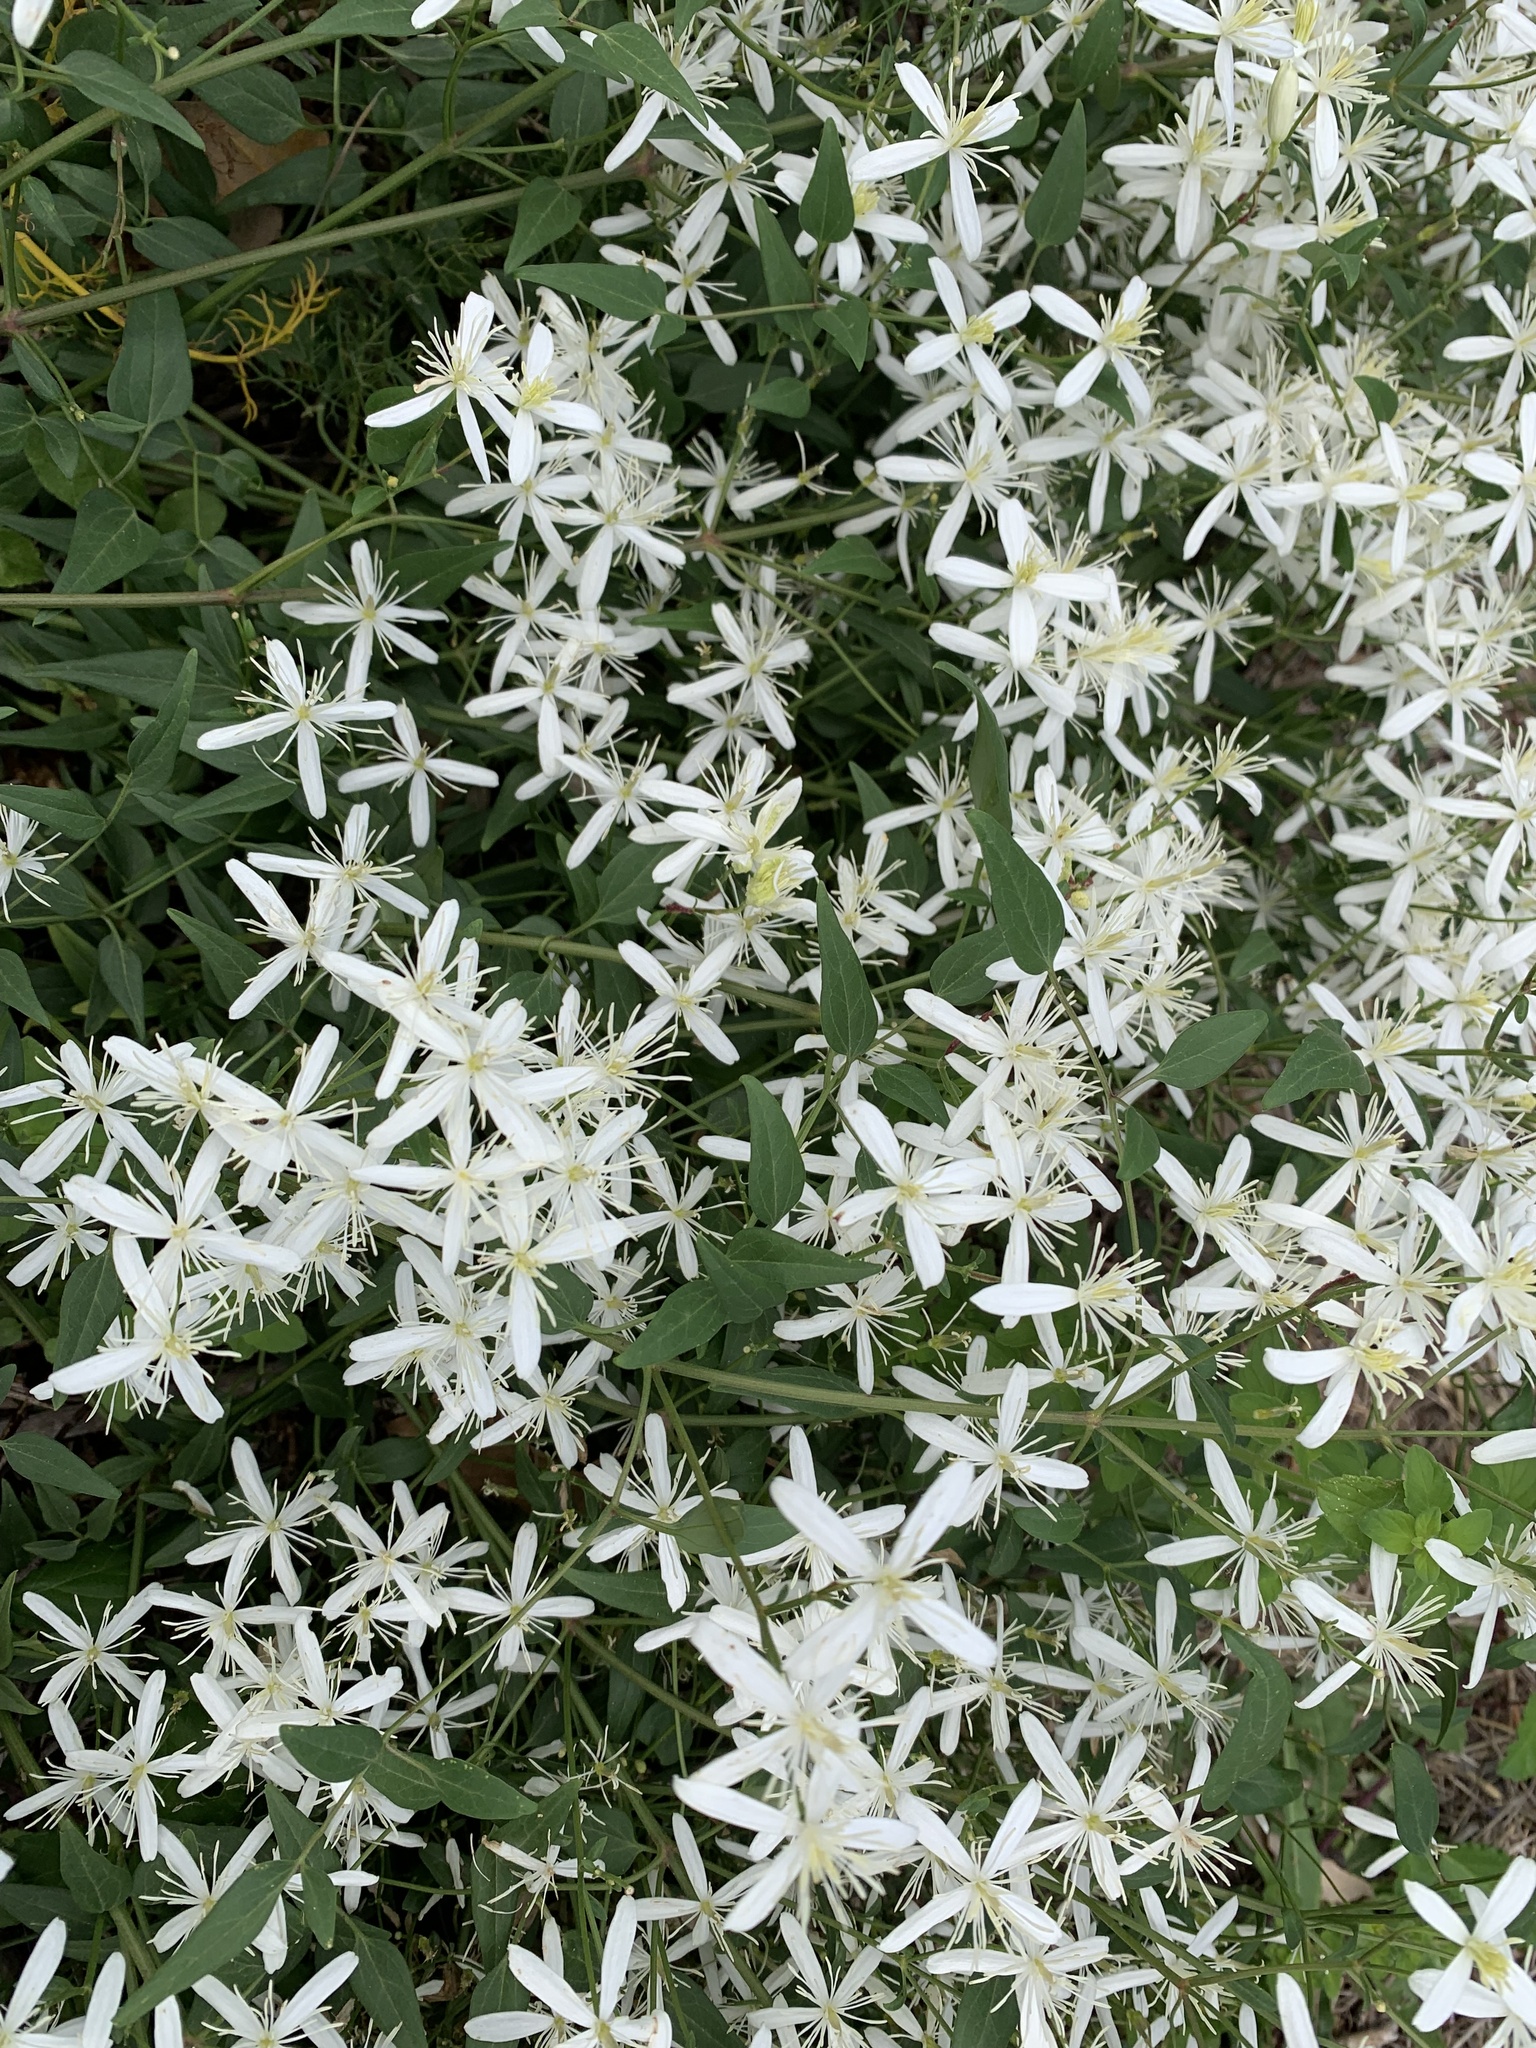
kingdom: Plantae
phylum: Tracheophyta
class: Magnoliopsida
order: Ranunculales
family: Ranunculaceae
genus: Clematis
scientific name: Clematis flammula
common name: Virgin's-bower
